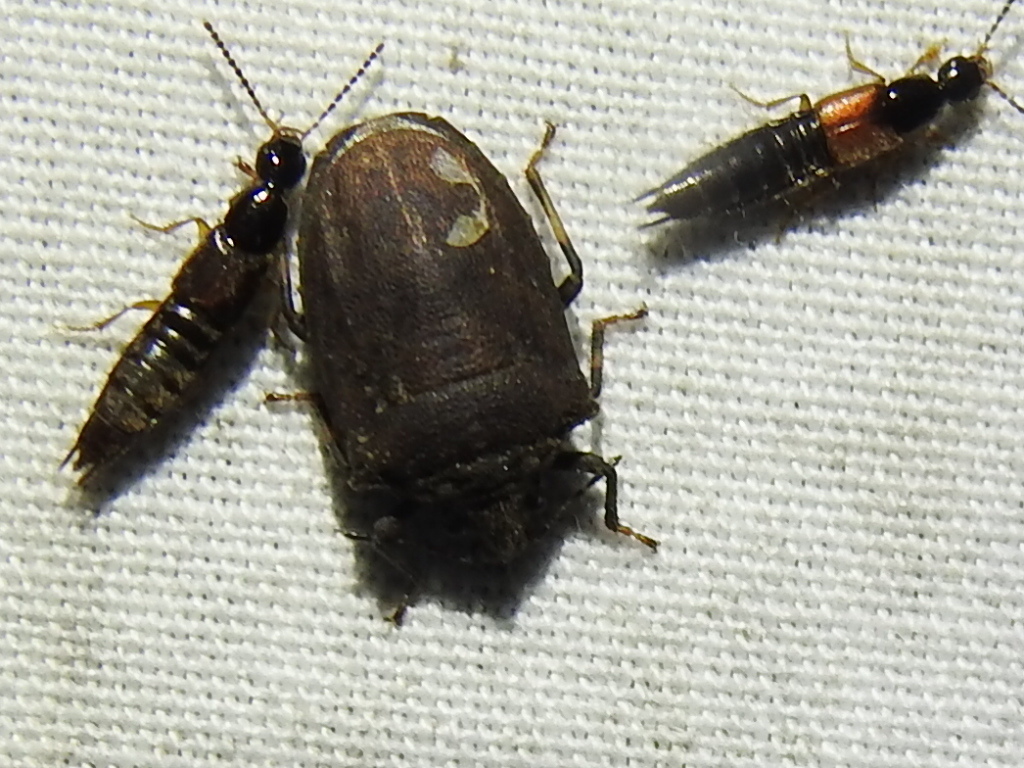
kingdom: Animalia
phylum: Arthropoda
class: Insecta
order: Hemiptera
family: Pentatomidae
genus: Amaurochrous
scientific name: Amaurochrous cinctipes
